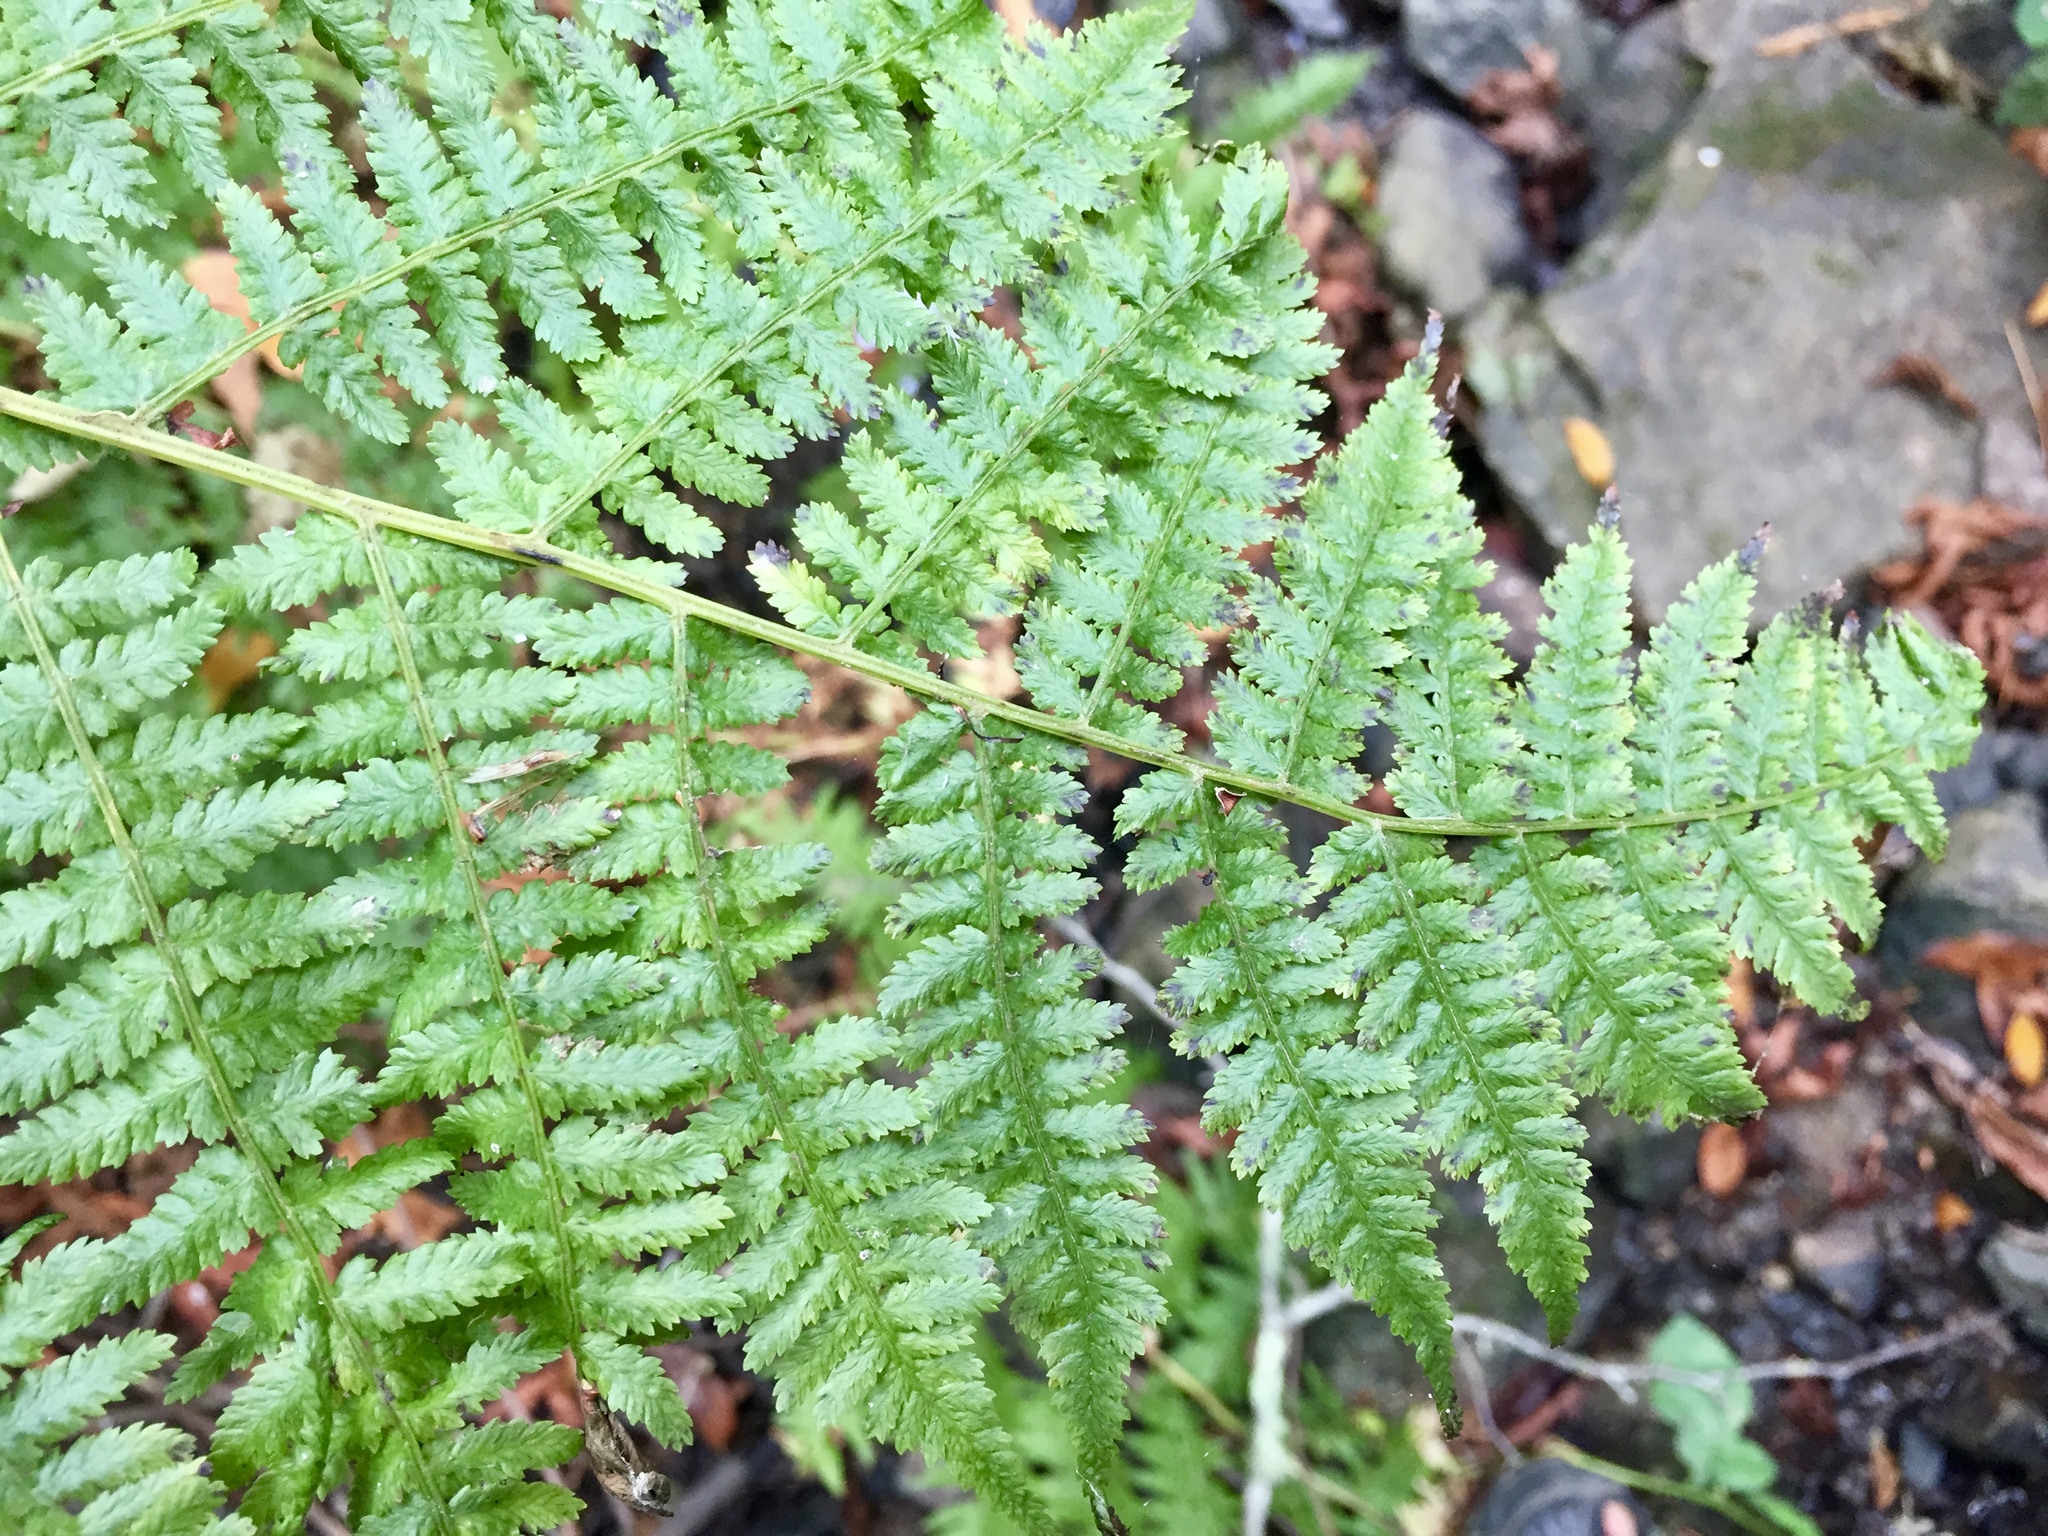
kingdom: Plantae
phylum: Tracheophyta
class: Polypodiopsida
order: Polypodiales
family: Athyriaceae
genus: Athyrium
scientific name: Athyrium filix-femina
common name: Lady fern
